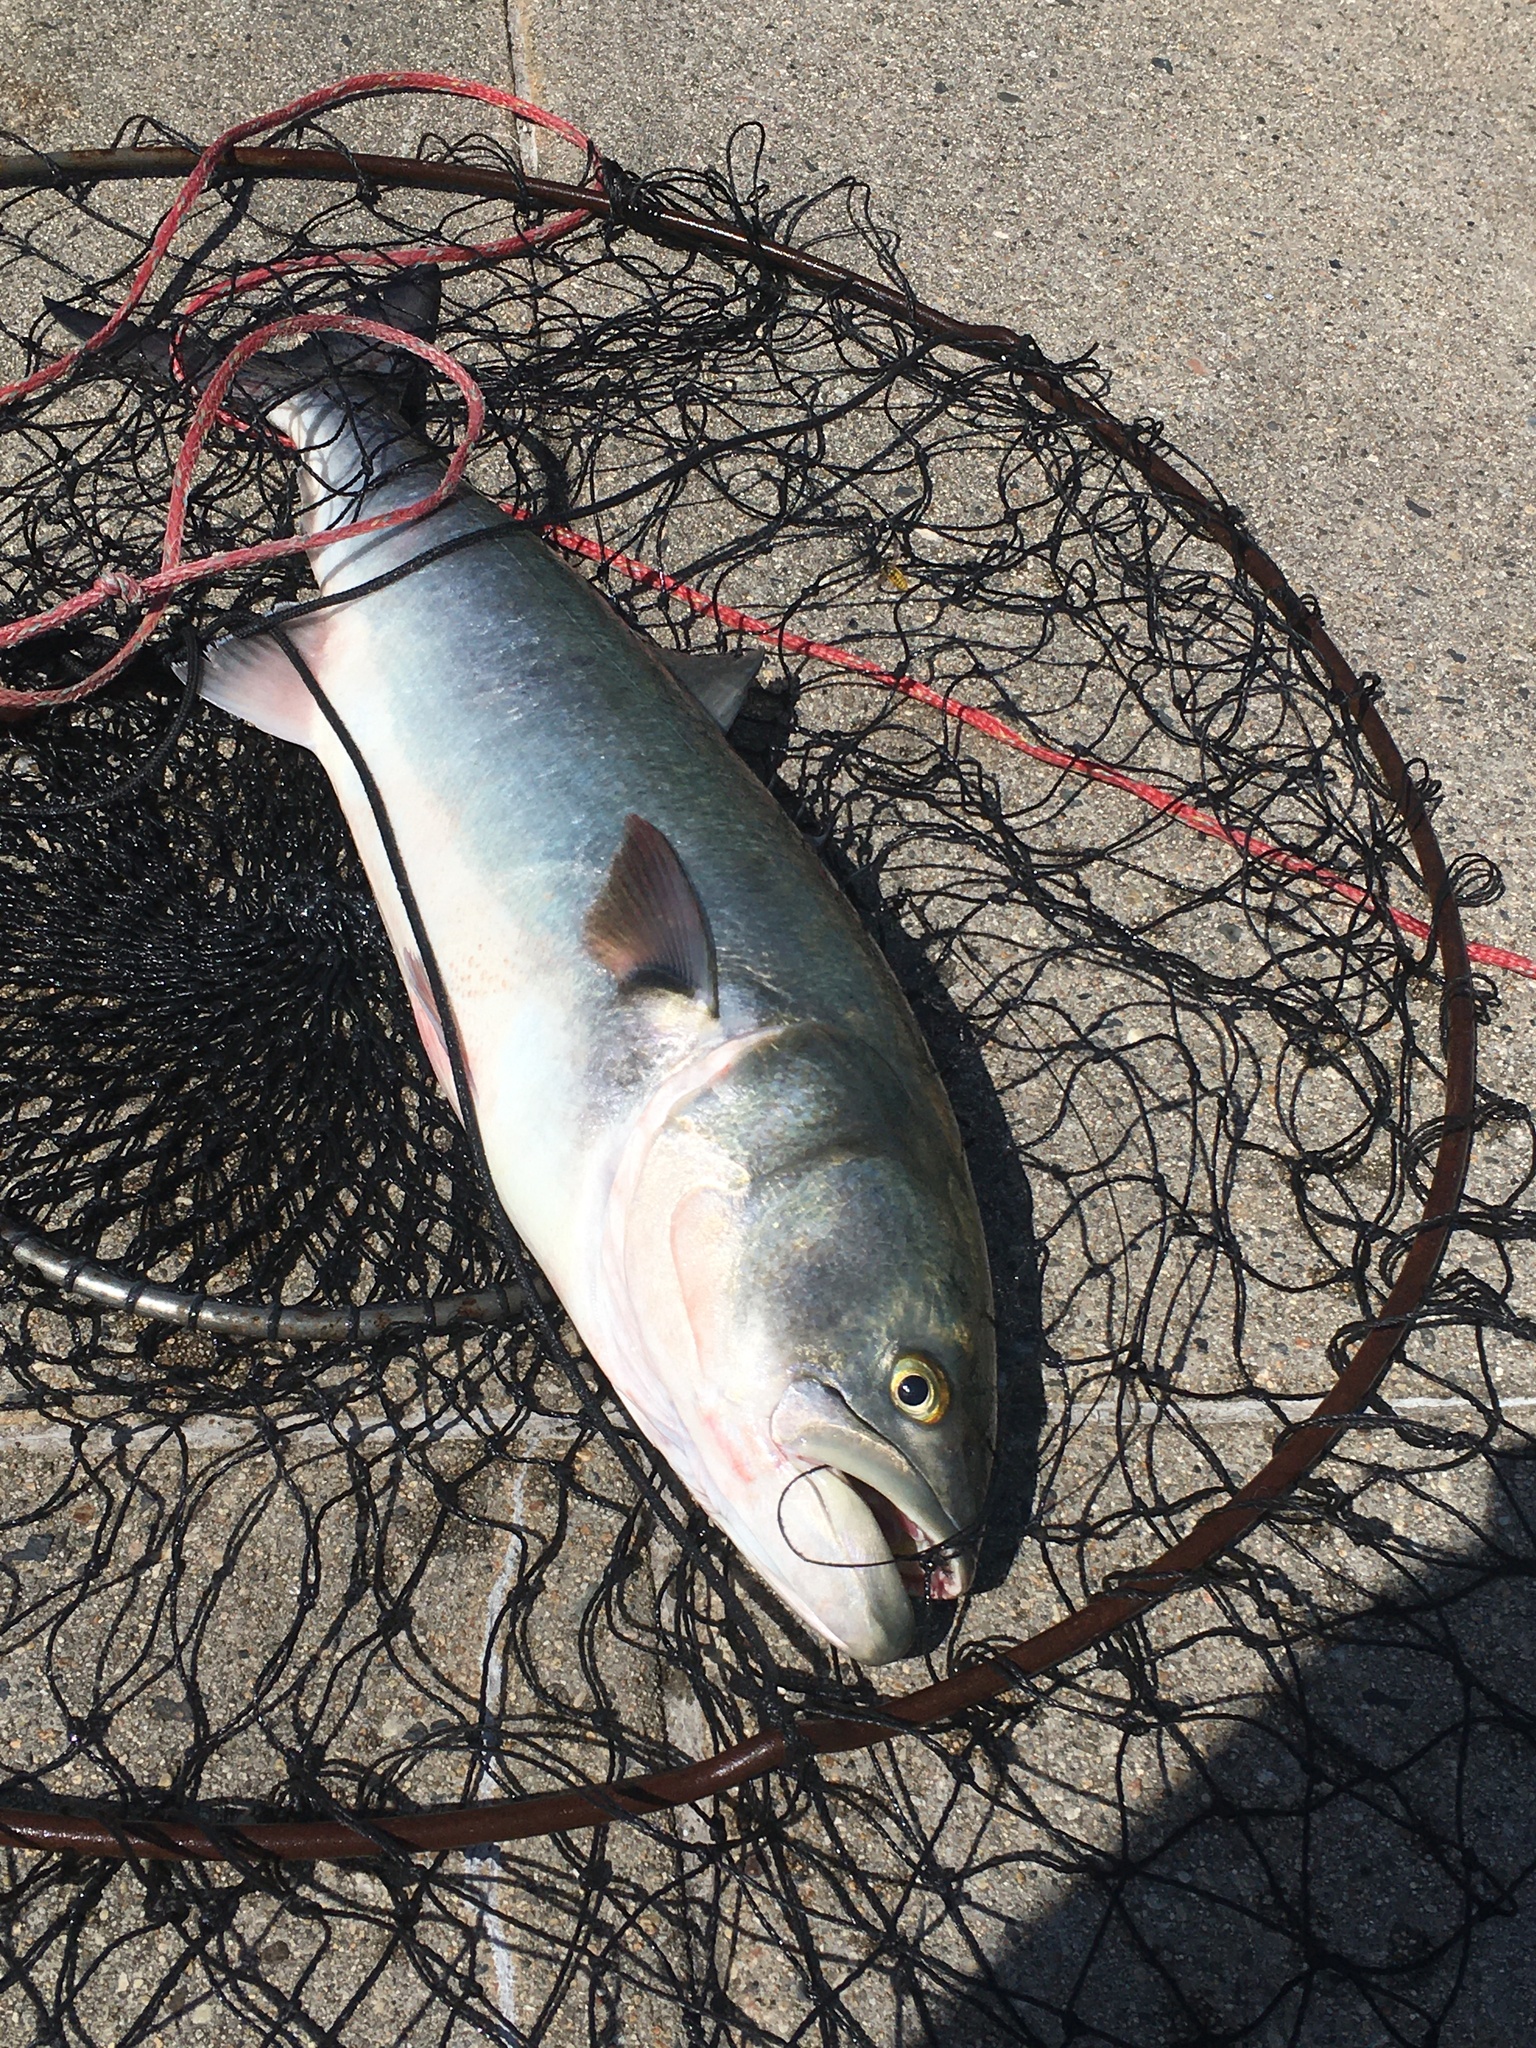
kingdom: Animalia
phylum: Chordata
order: Perciformes
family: Pomatomidae
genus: Pomatomus
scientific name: Pomatomus saltatrix
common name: Bluefish
